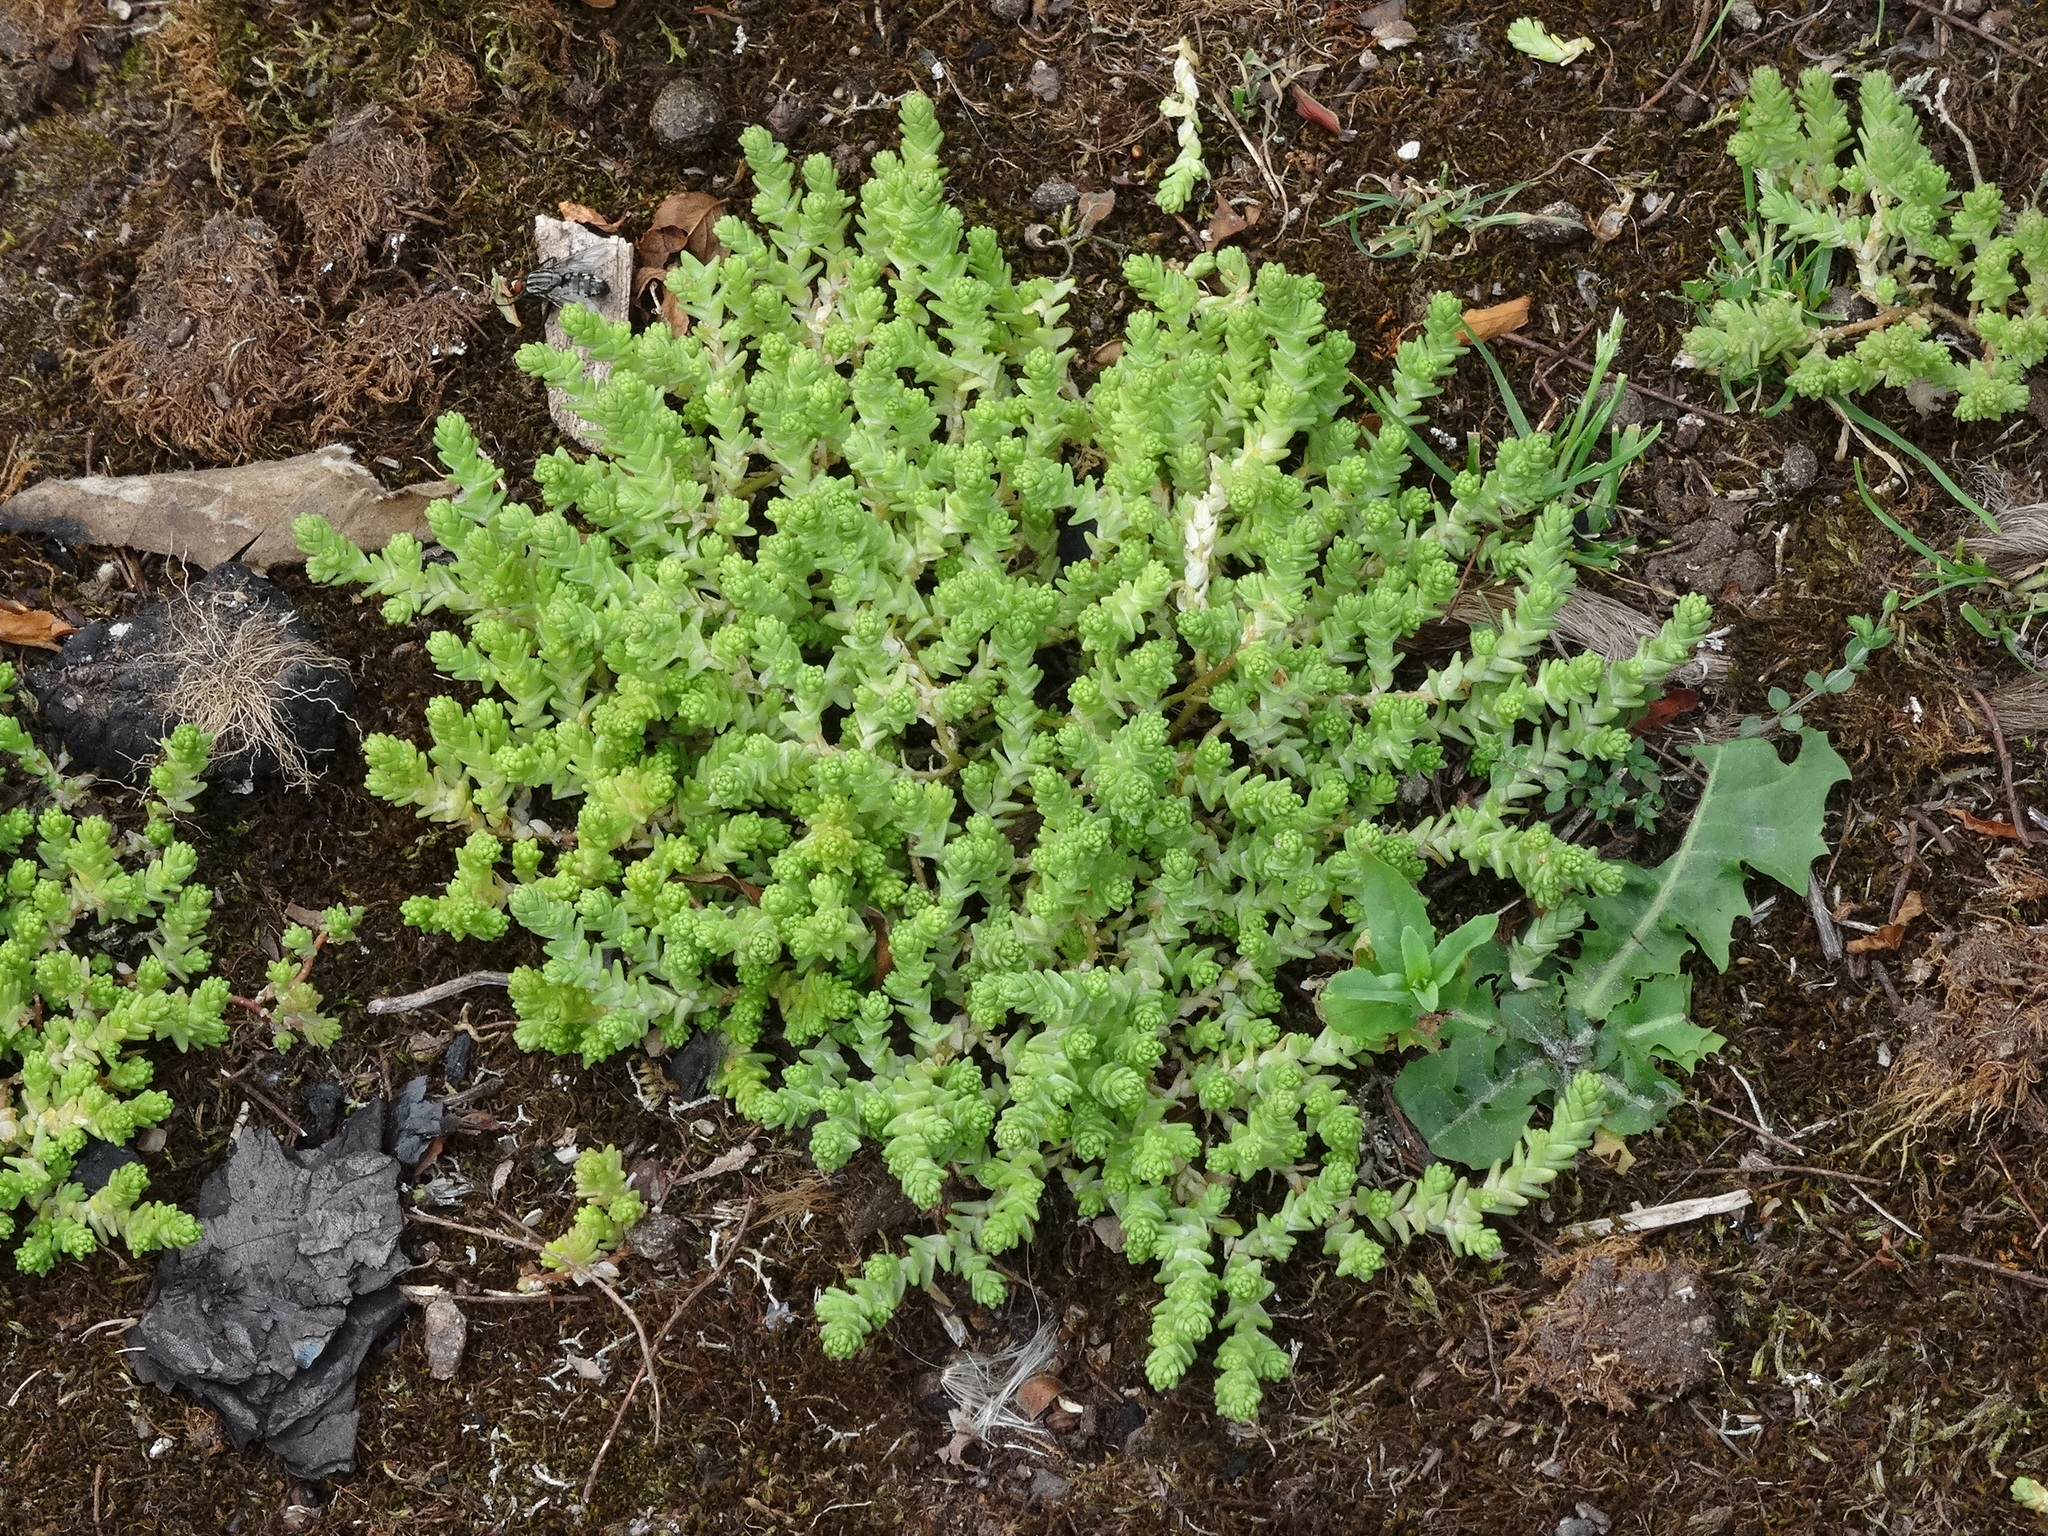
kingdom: Plantae
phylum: Tracheophyta
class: Magnoliopsida
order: Saxifragales
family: Crassulaceae
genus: Sedum
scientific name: Sedum acre
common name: Biting stonecrop
